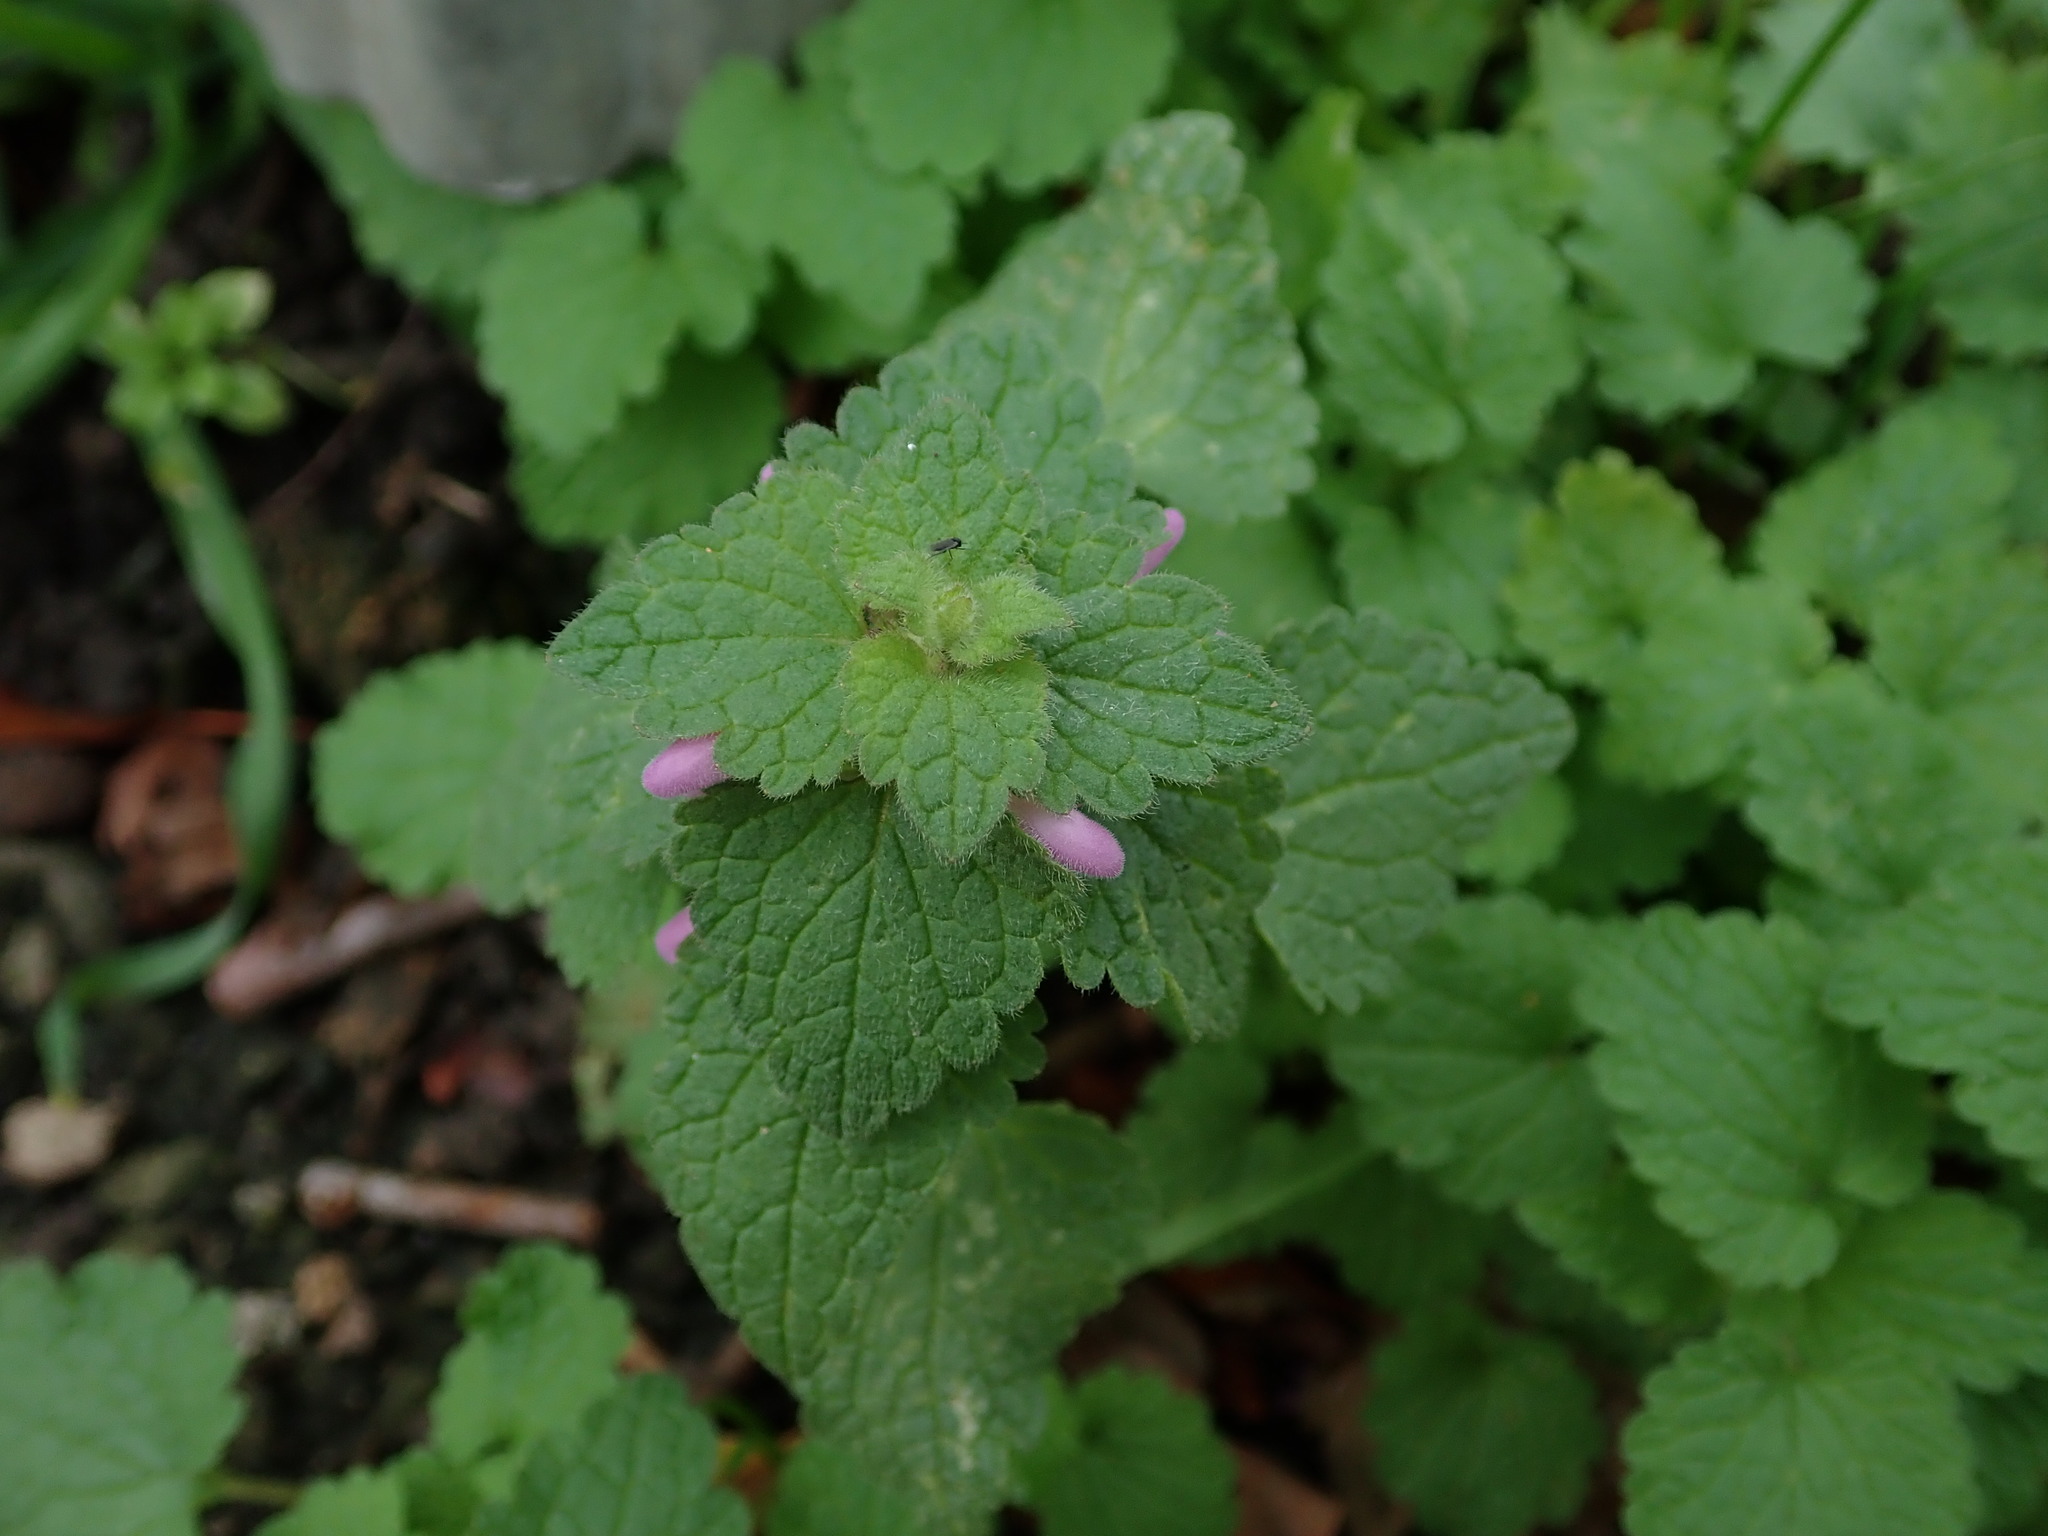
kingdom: Plantae
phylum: Tracheophyta
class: Magnoliopsida
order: Lamiales
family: Lamiaceae
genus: Lamium
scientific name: Lamium purpureum
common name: Red dead-nettle
